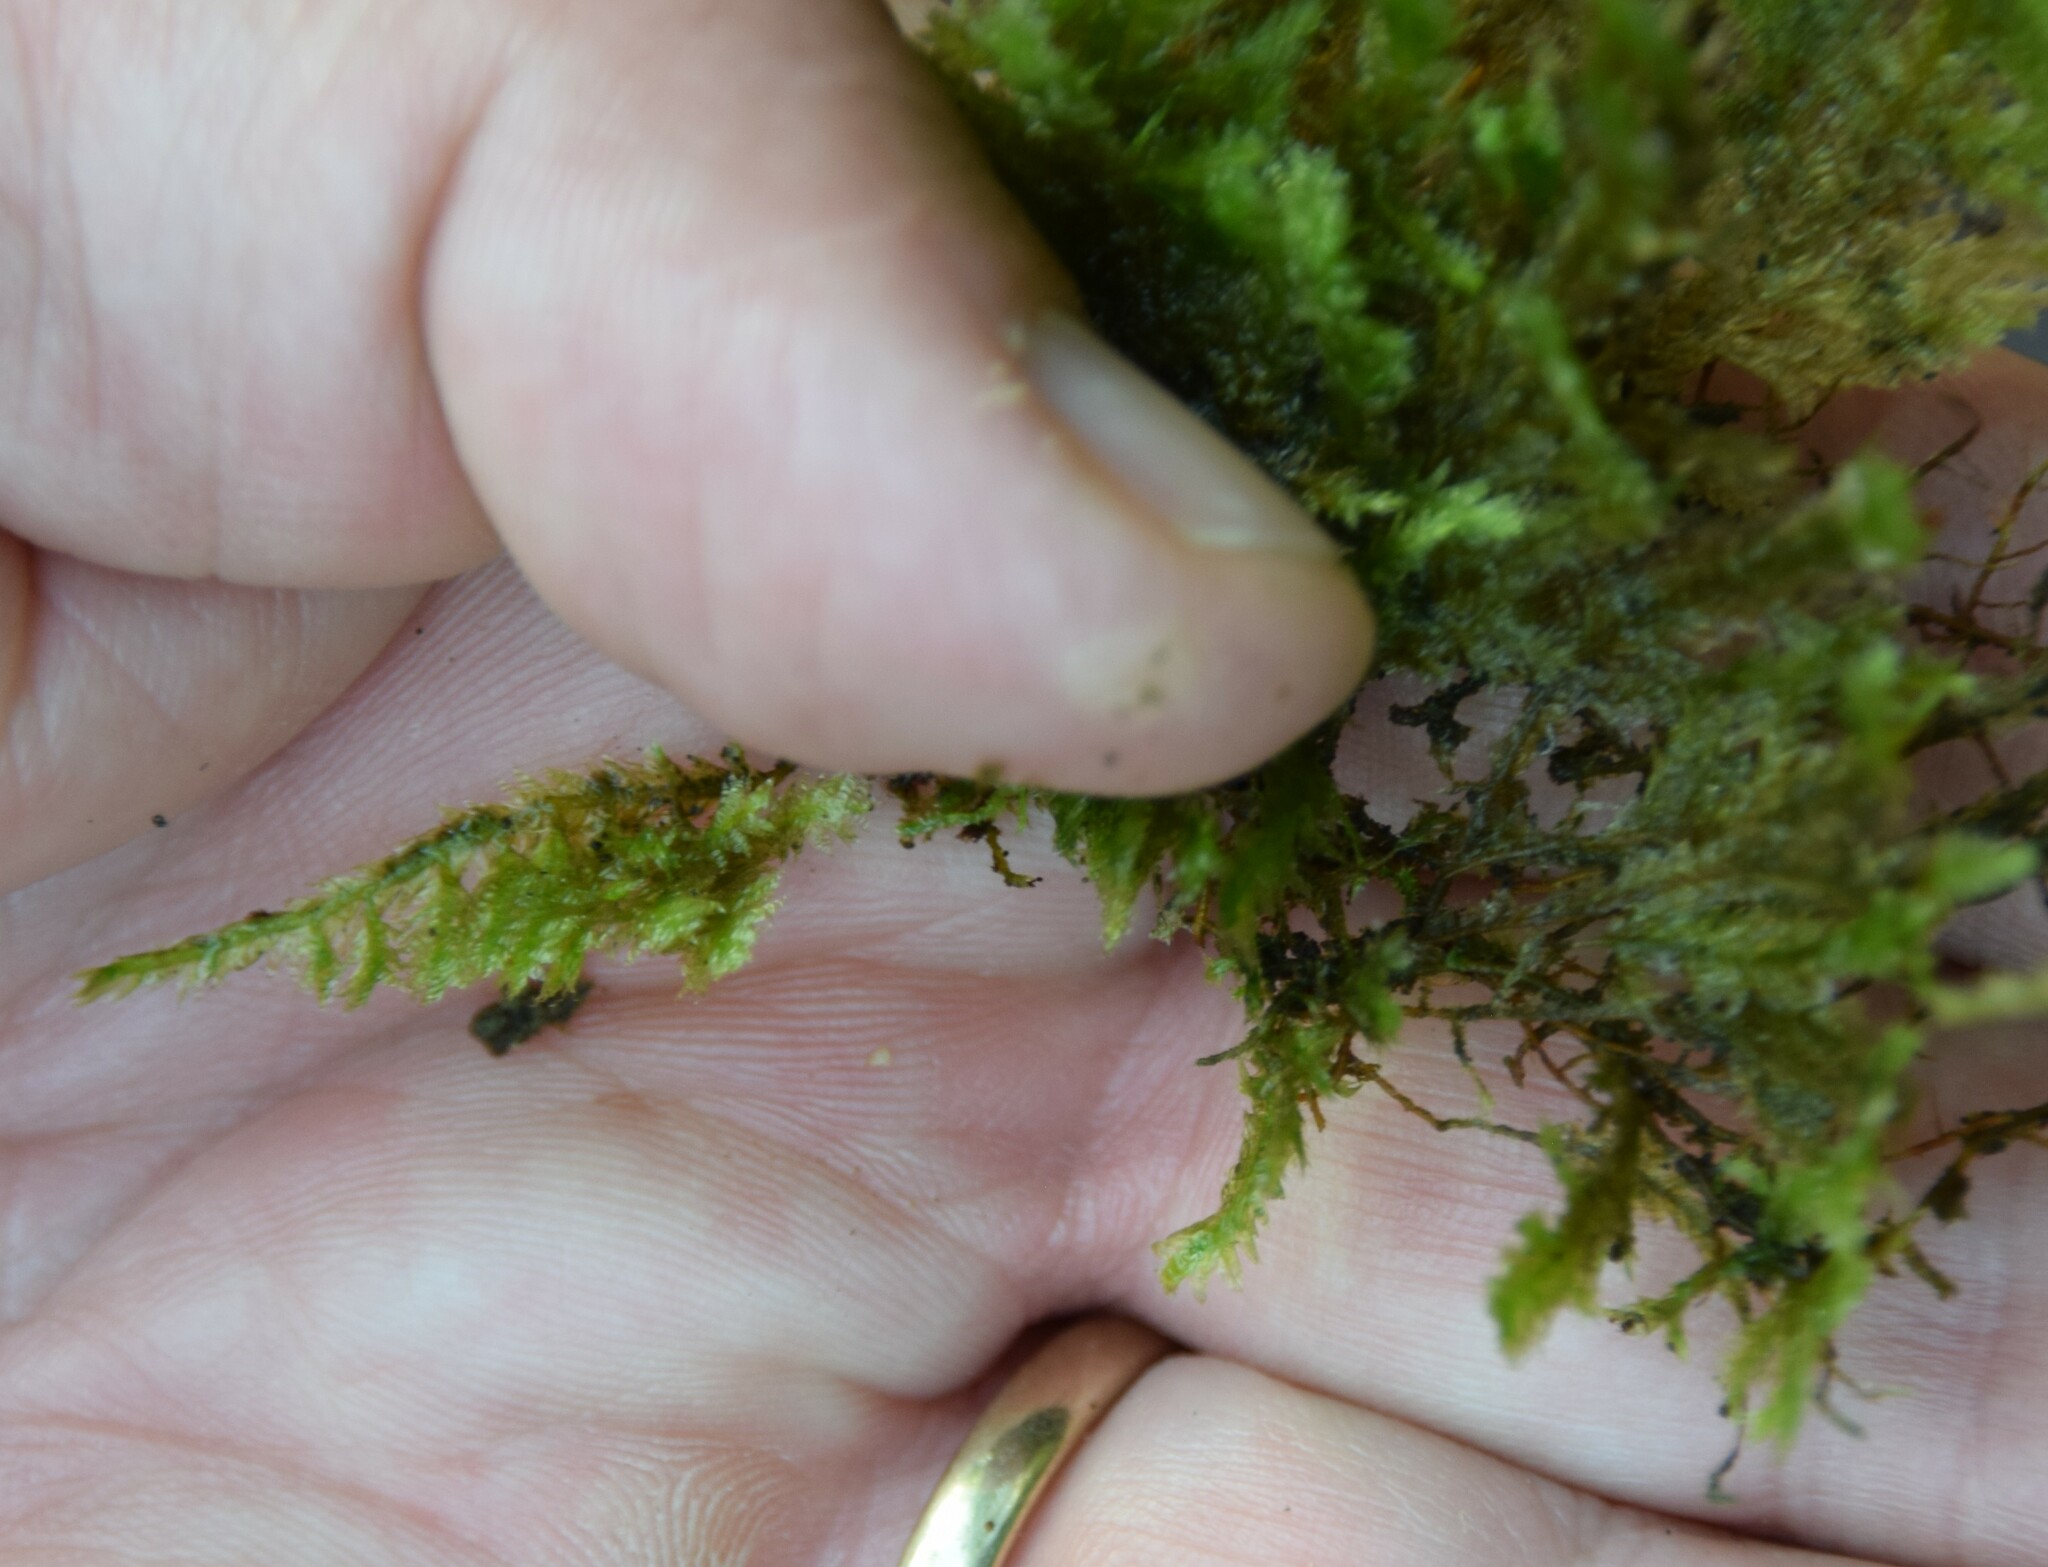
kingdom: Plantae
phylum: Marchantiophyta
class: Jungermanniopsida
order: Porellales
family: Porellaceae
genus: Porella
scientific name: Porella platyphylla
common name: Wall scalewort
